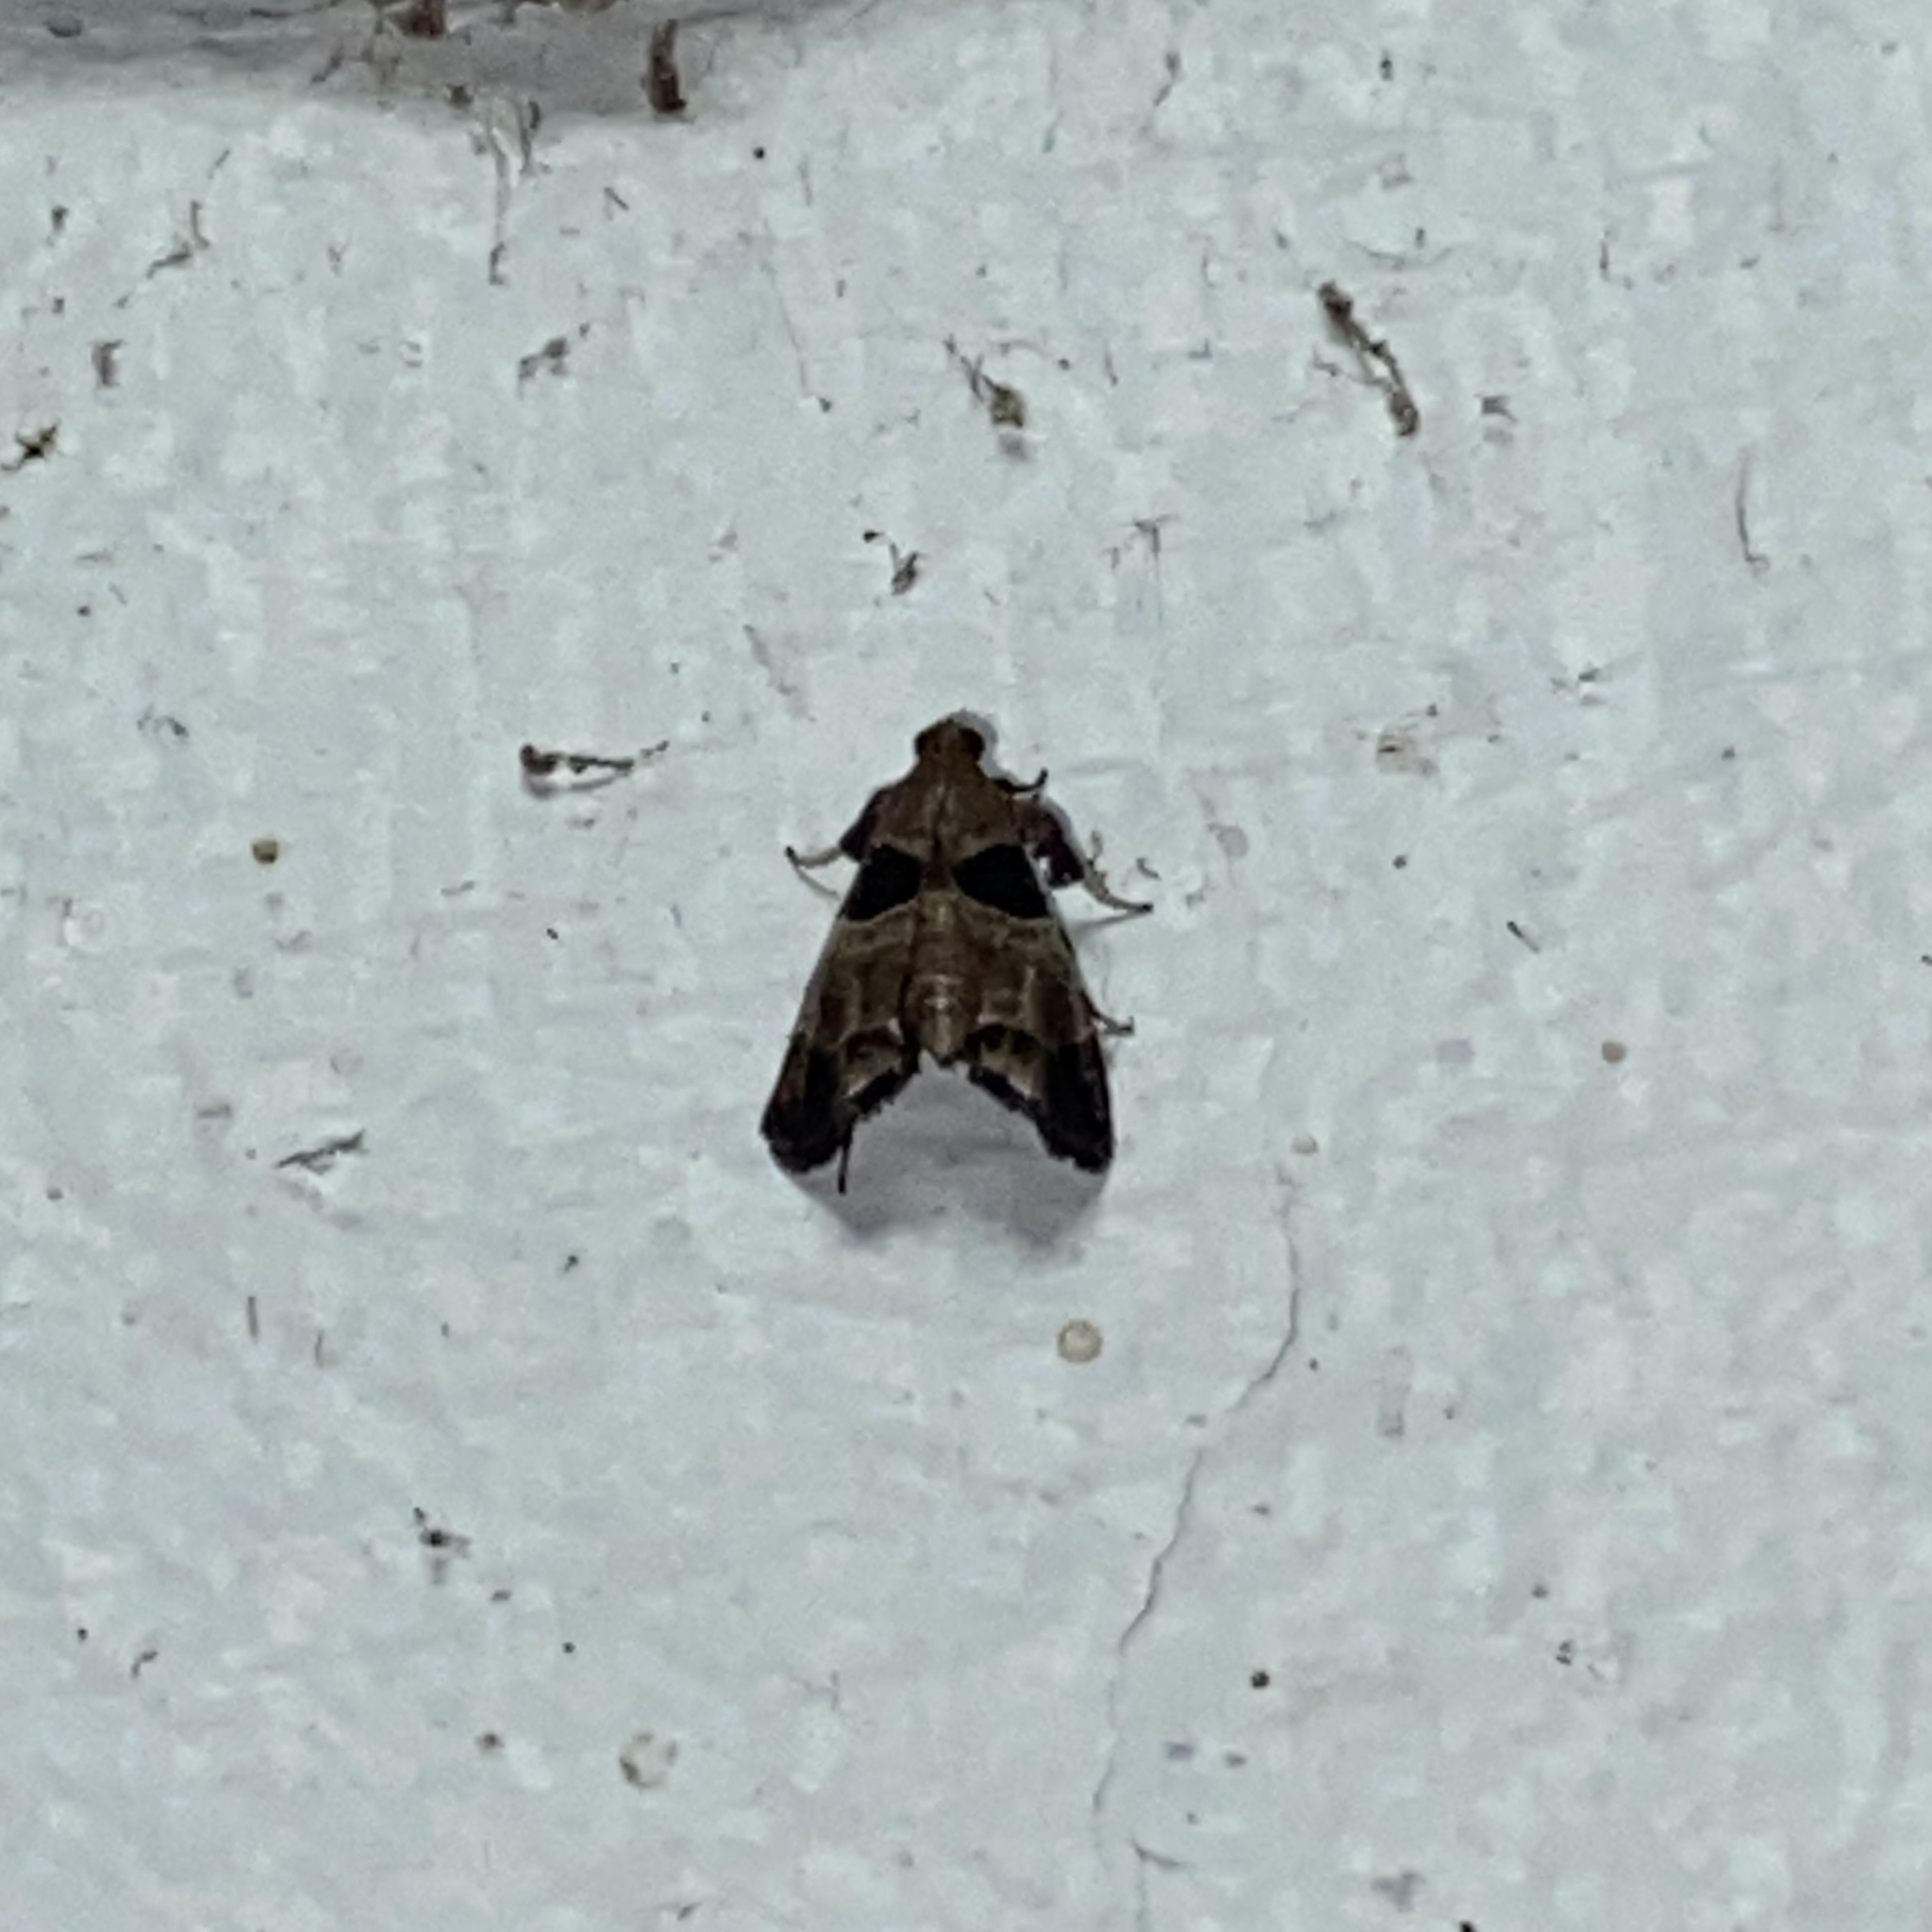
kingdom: Animalia
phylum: Arthropoda
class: Insecta
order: Lepidoptera
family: Pyralidae
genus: Tosale
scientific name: Tosale oviplagalis
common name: Dimorphic tosale moth
